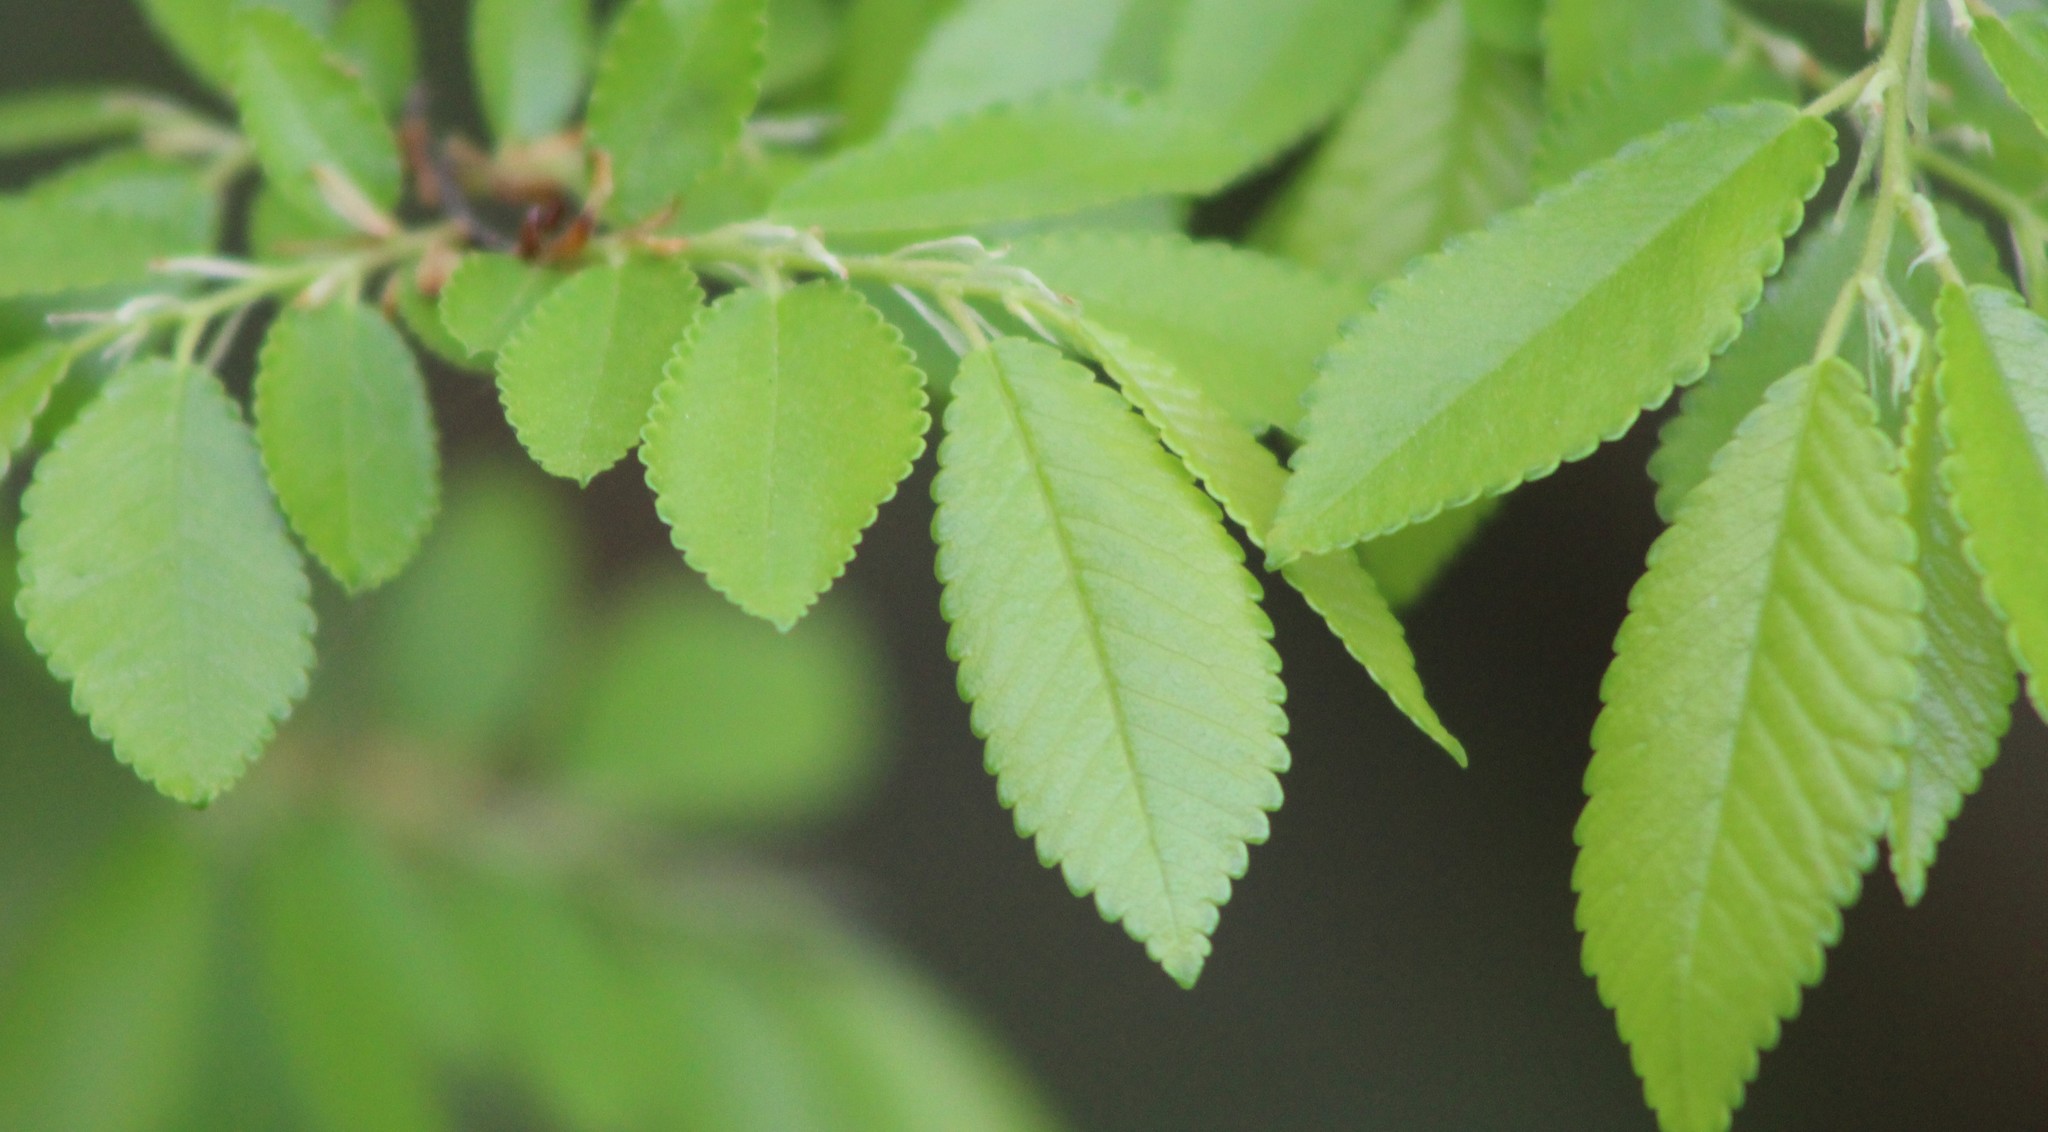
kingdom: Plantae
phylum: Tracheophyta
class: Magnoliopsida
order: Rosales
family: Ulmaceae
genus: Ulmus
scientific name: Ulmus parvifolia
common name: Chinese elm
